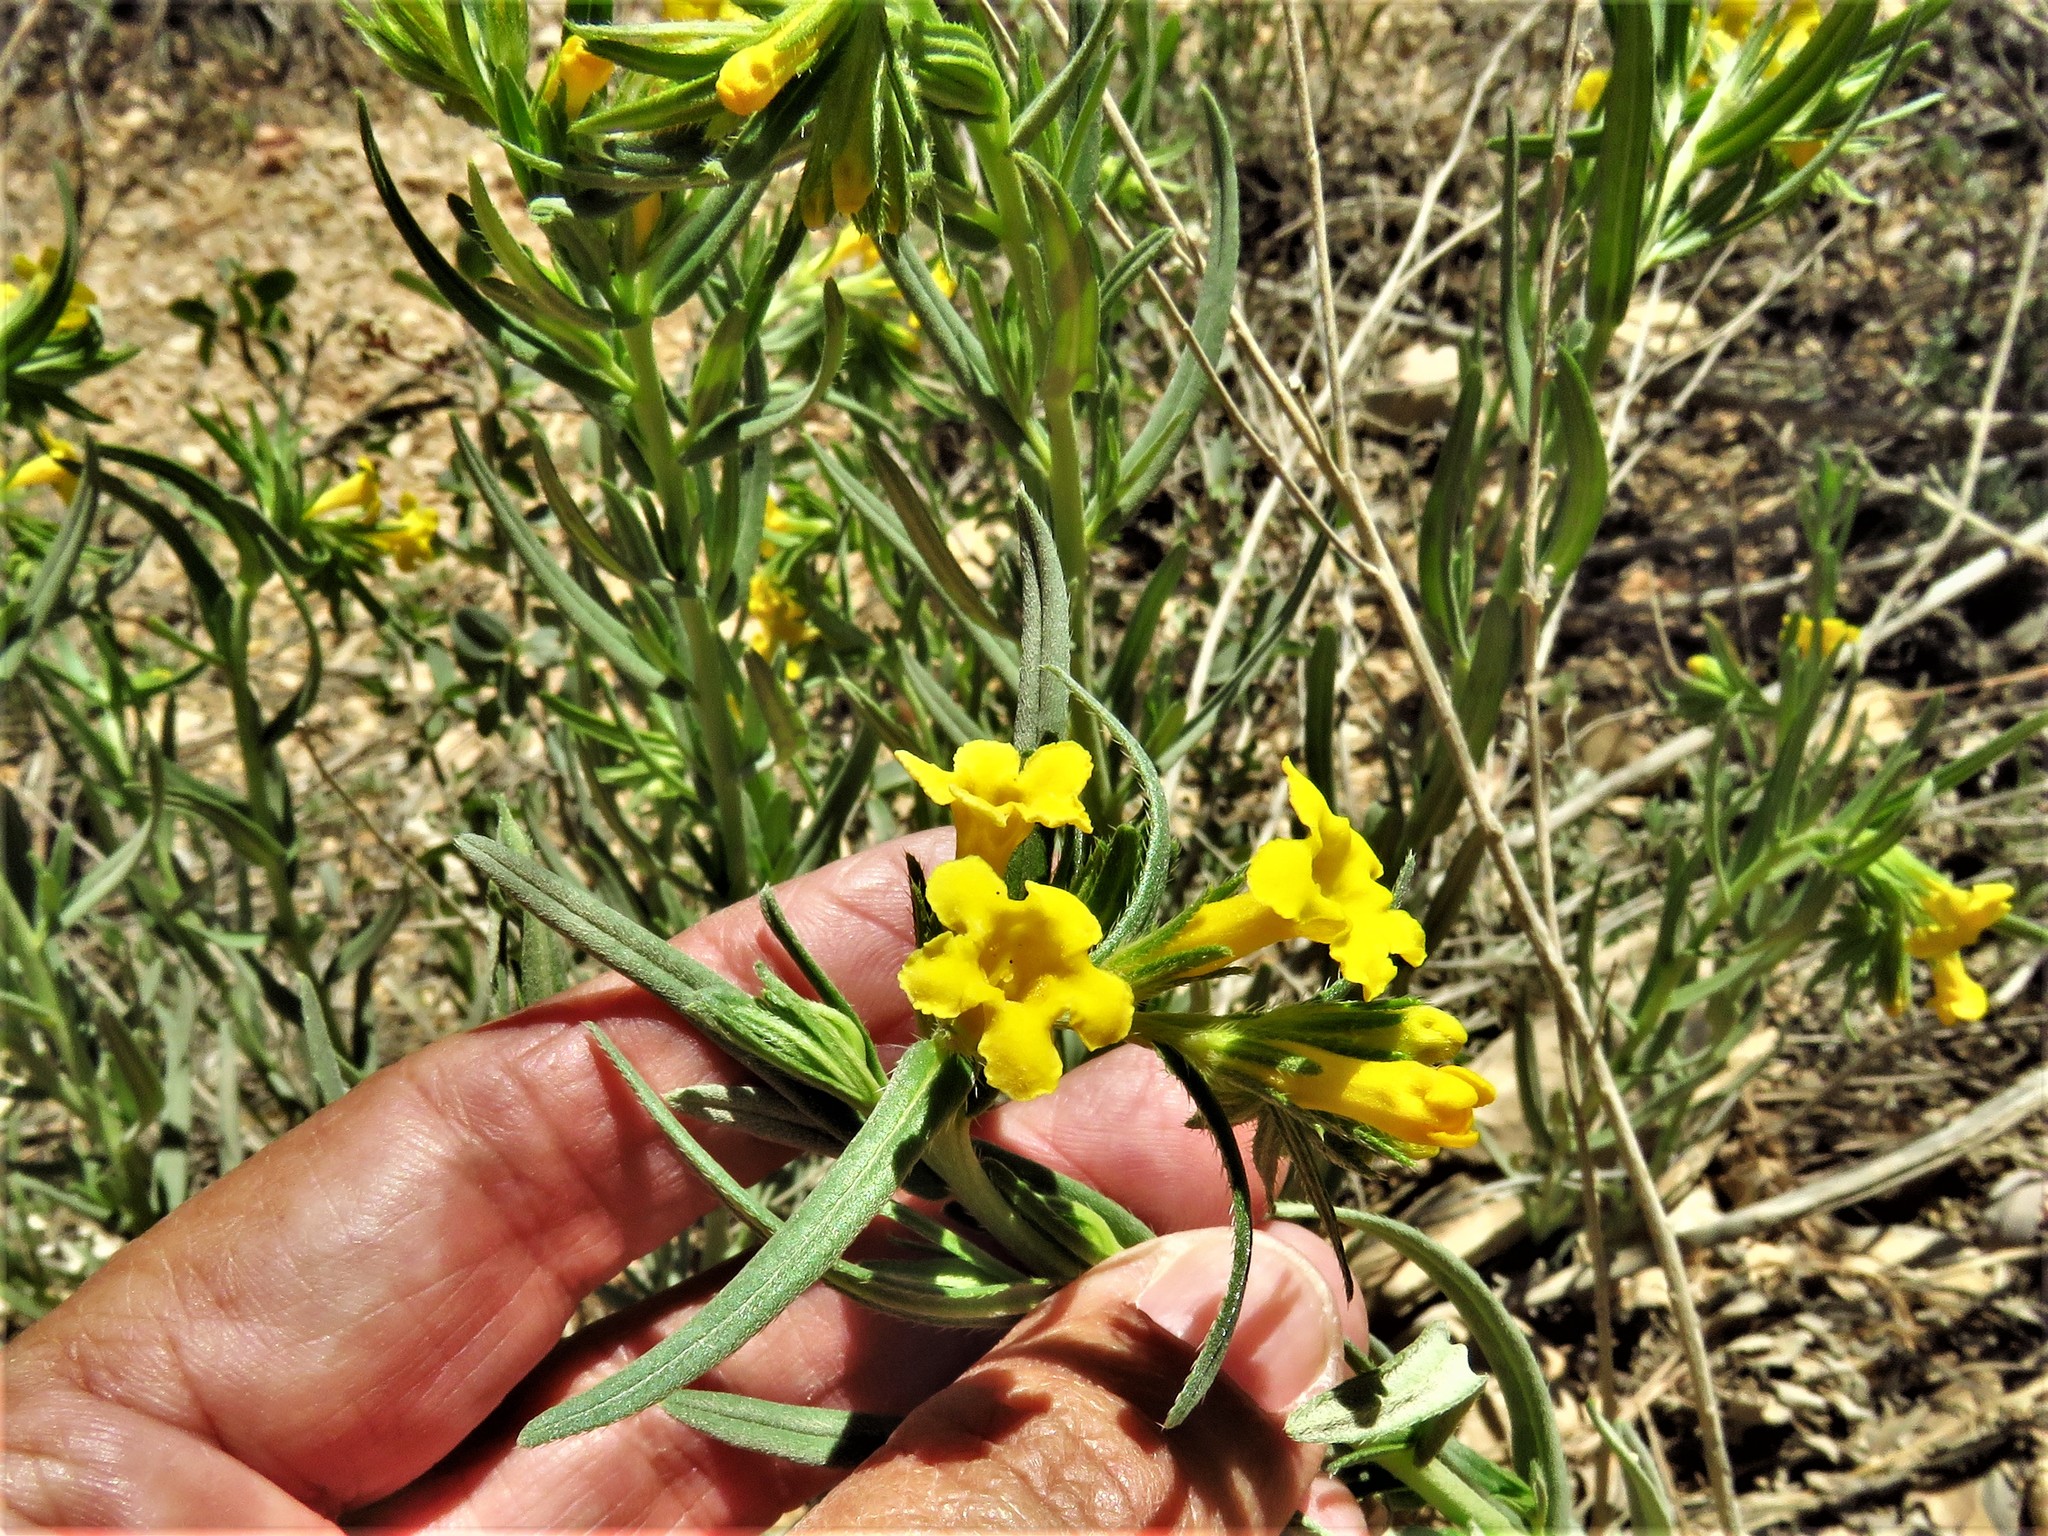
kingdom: Plantae
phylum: Tracheophyta
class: Magnoliopsida
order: Boraginales
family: Boraginaceae
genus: Lithospermum
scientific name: Lithospermum multiflorum
